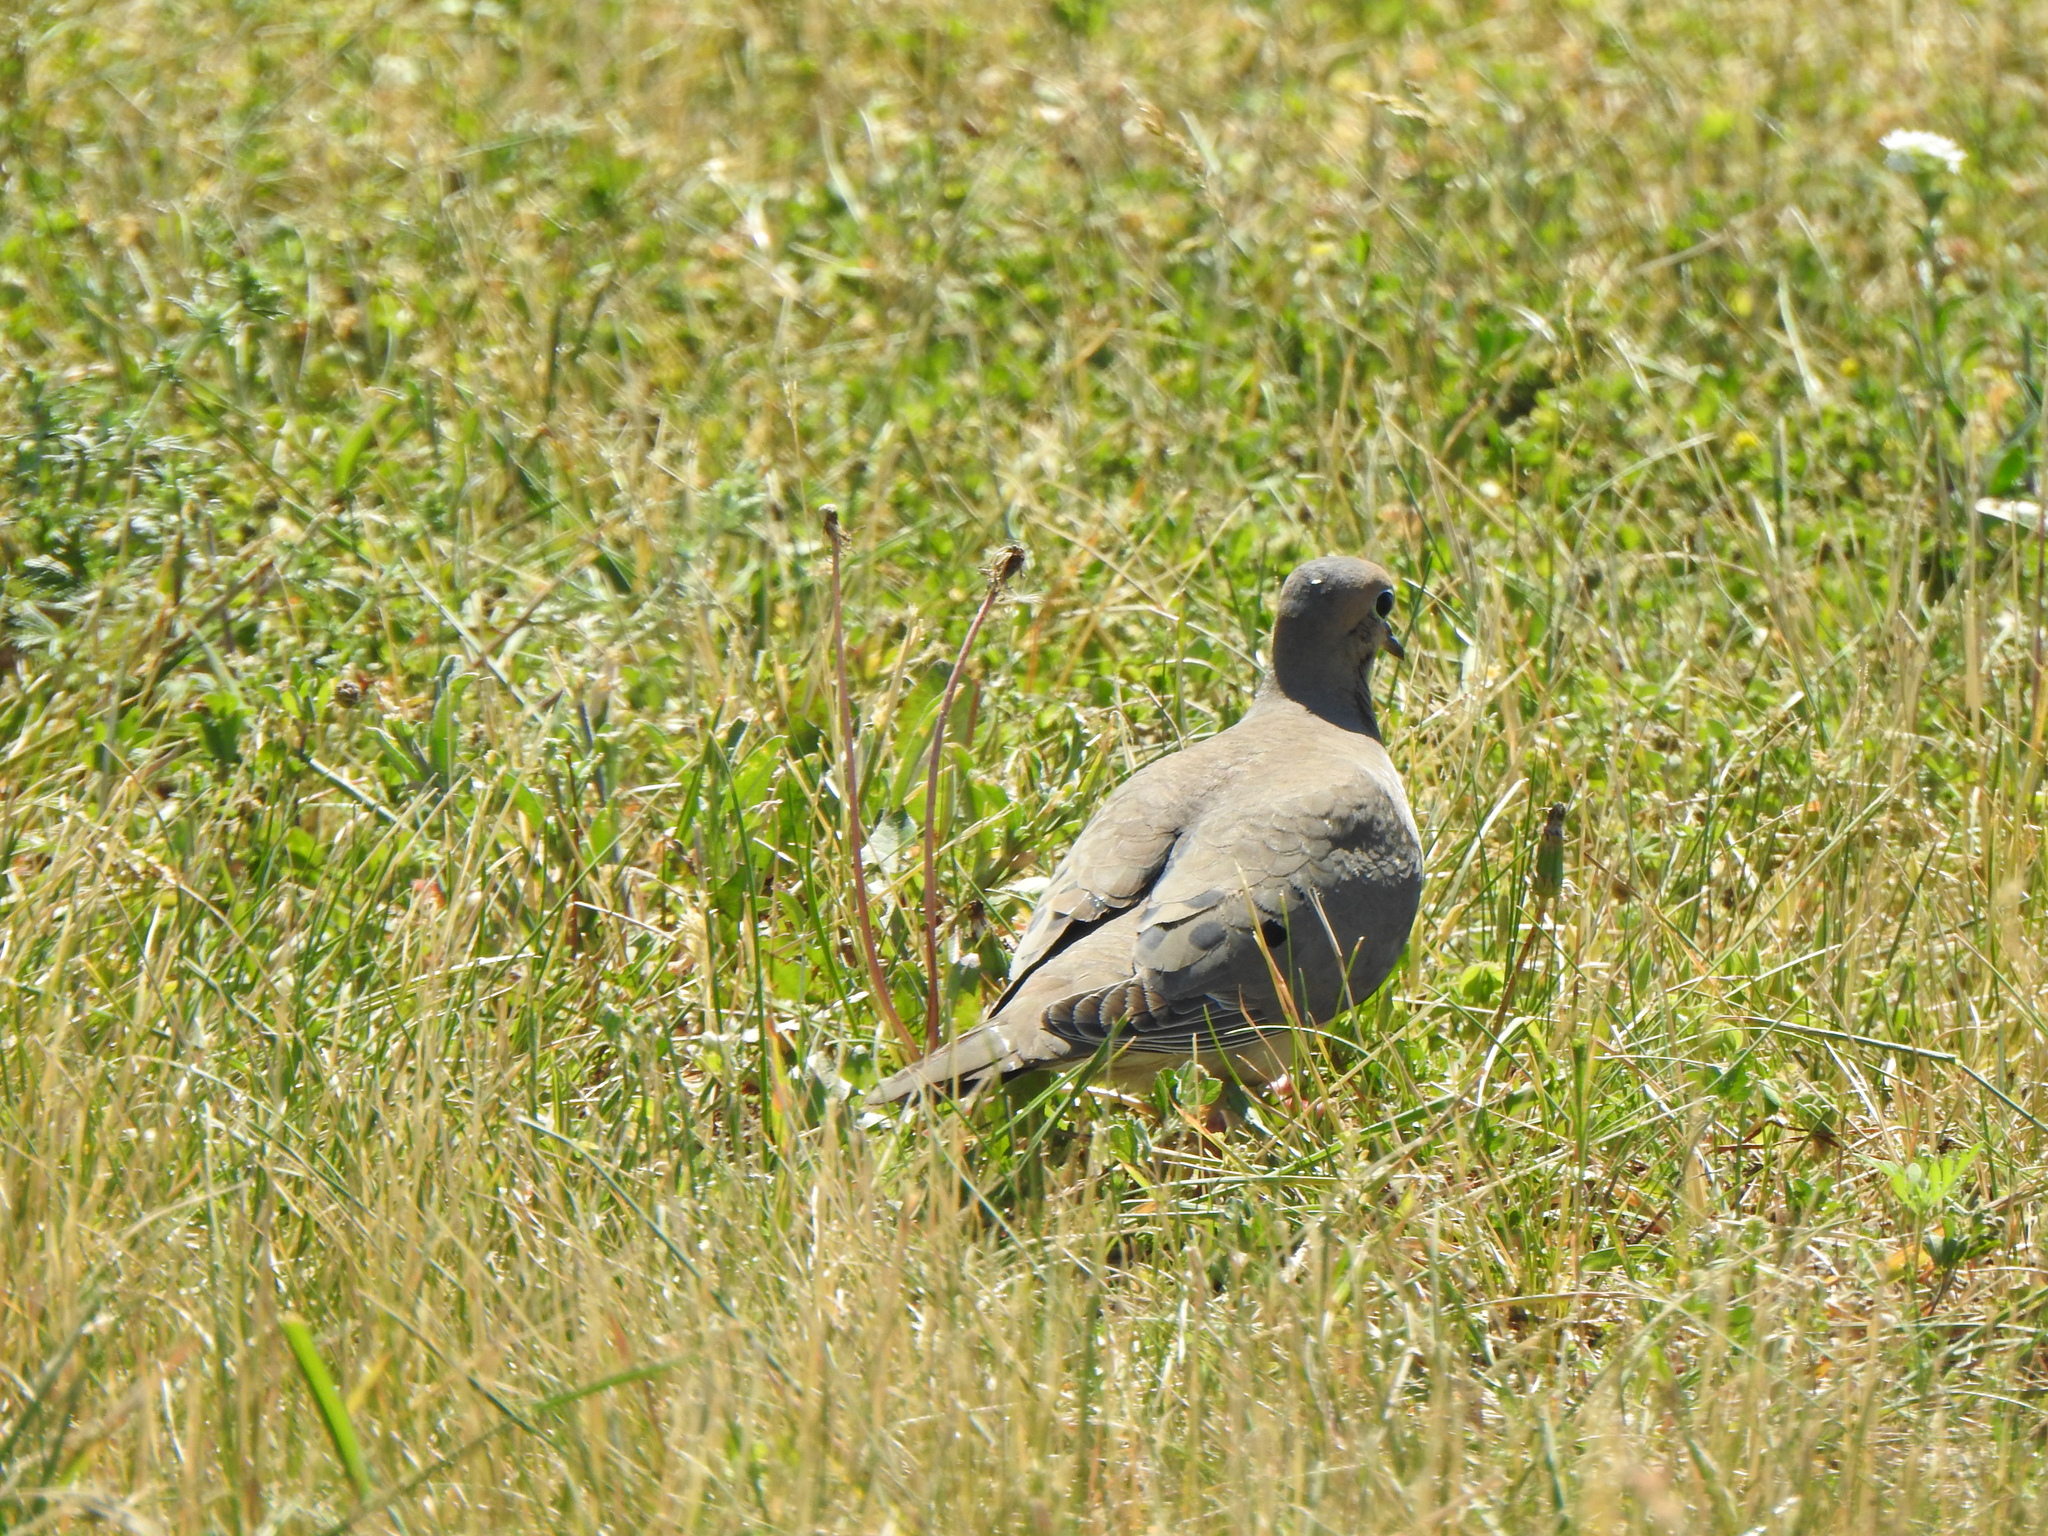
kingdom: Animalia
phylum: Chordata
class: Aves
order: Columbiformes
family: Columbidae
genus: Zenaida
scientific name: Zenaida macroura
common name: Mourning dove
